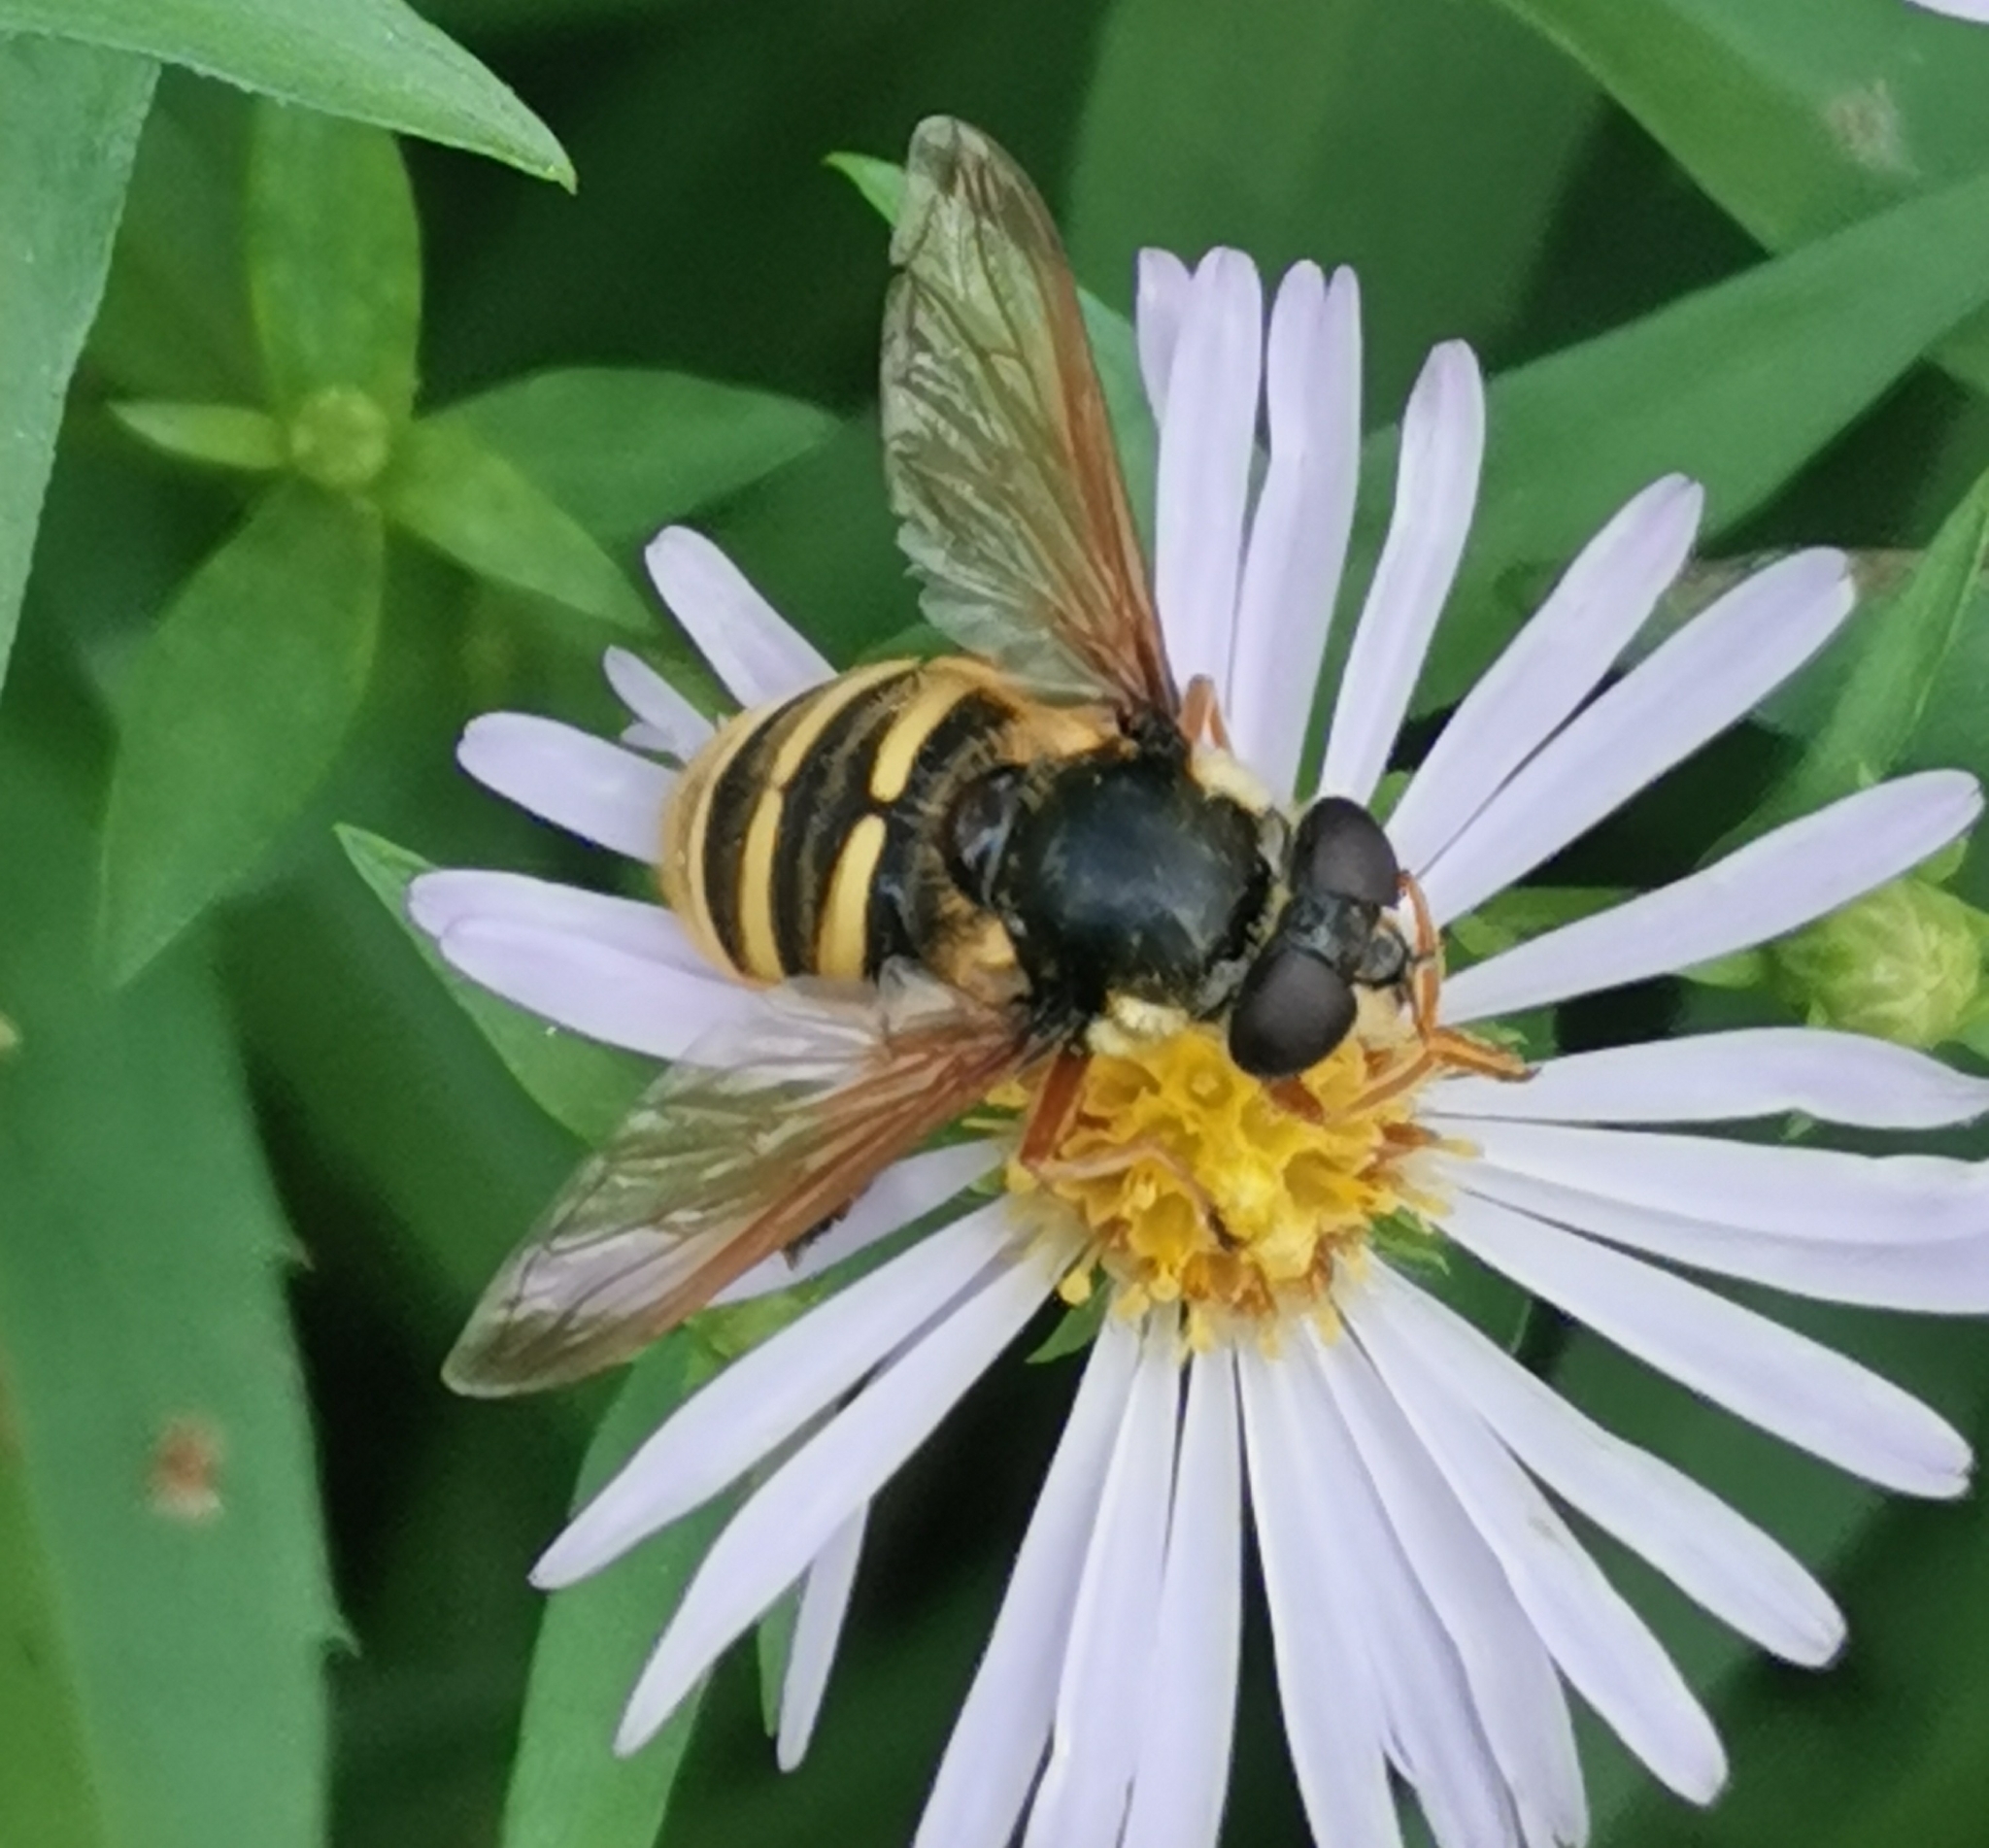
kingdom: Animalia
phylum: Arthropoda
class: Insecta
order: Diptera
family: Syrphidae
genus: Sericomyia
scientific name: Sericomyia silentis
